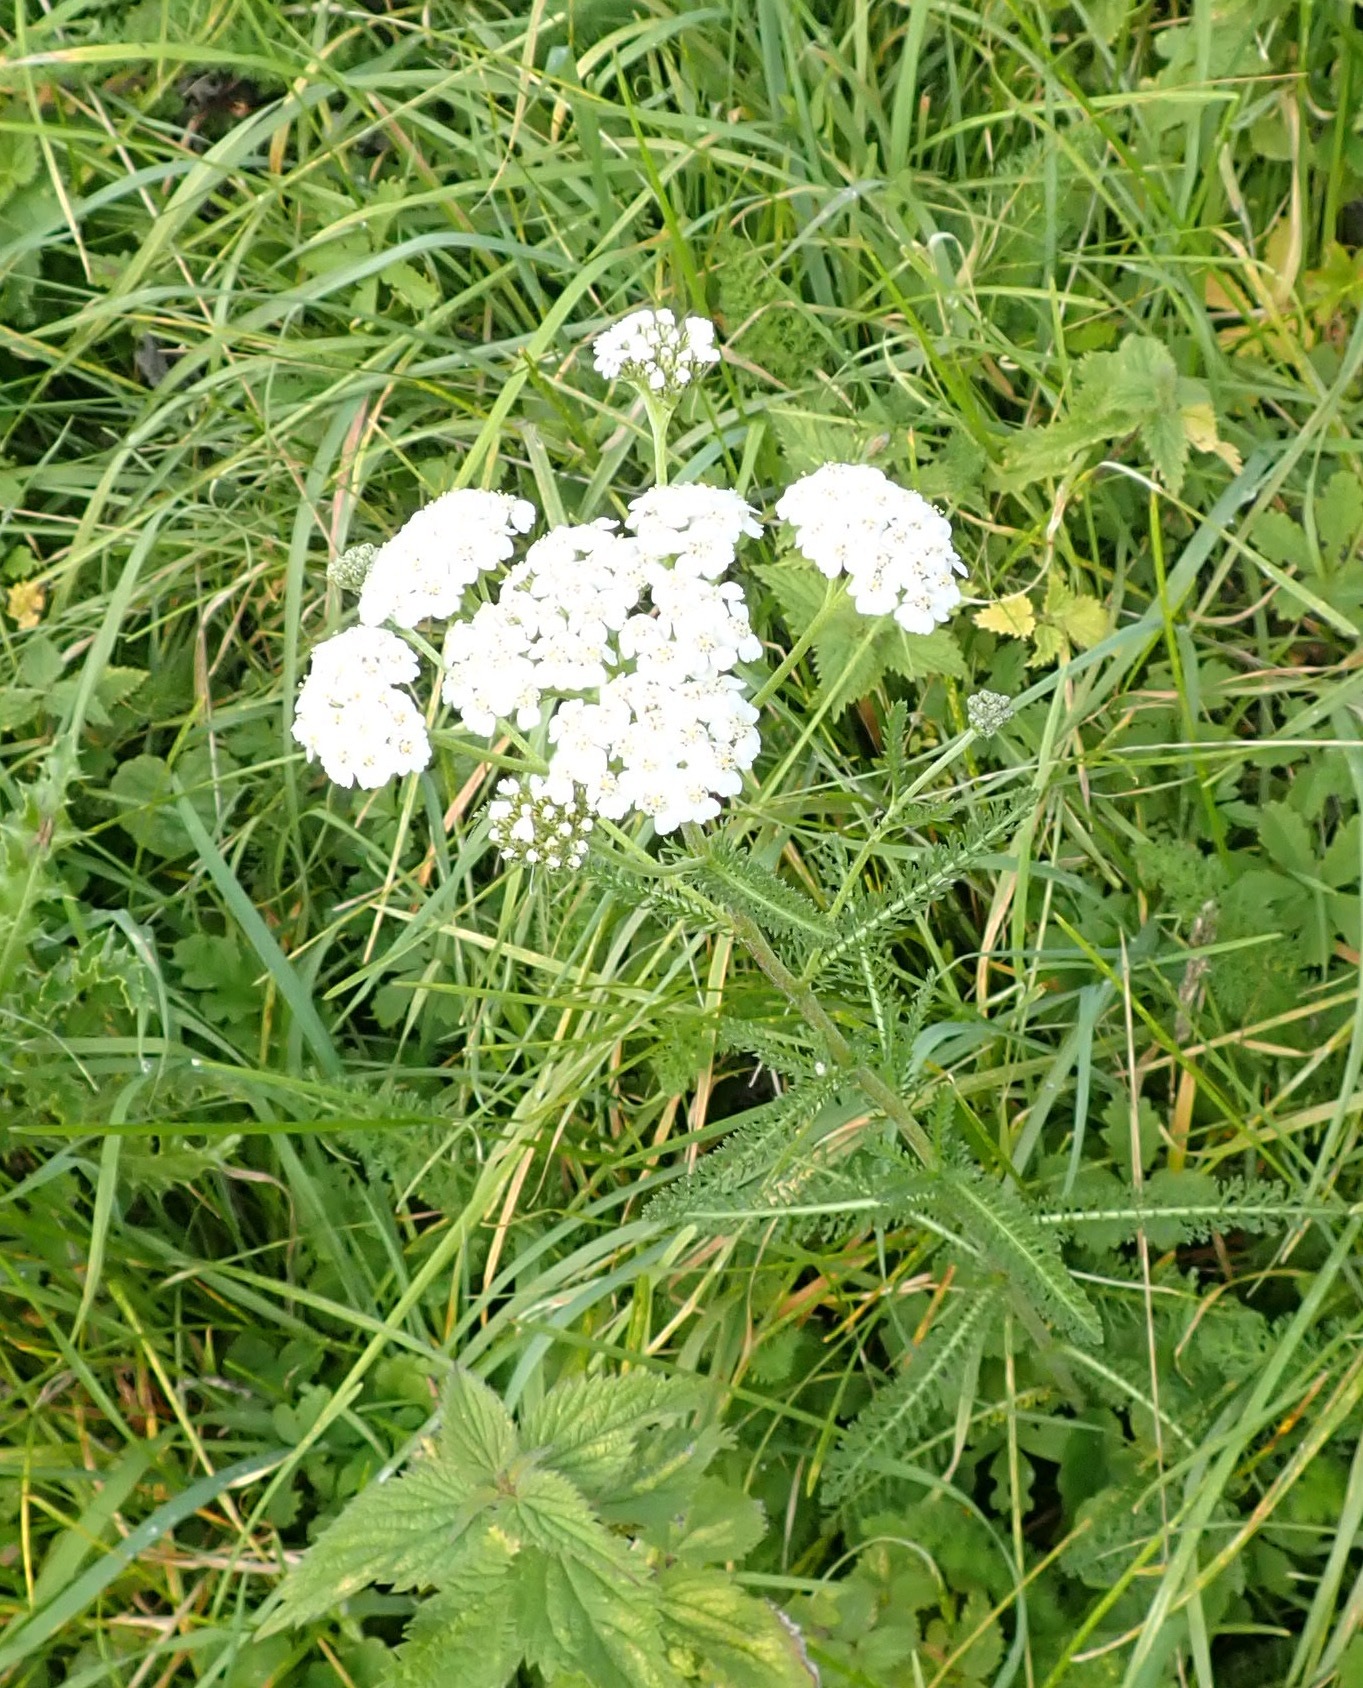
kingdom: Plantae
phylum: Tracheophyta
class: Magnoliopsida
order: Asterales
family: Asteraceae
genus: Achillea
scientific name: Achillea millefolium
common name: Yarrow
